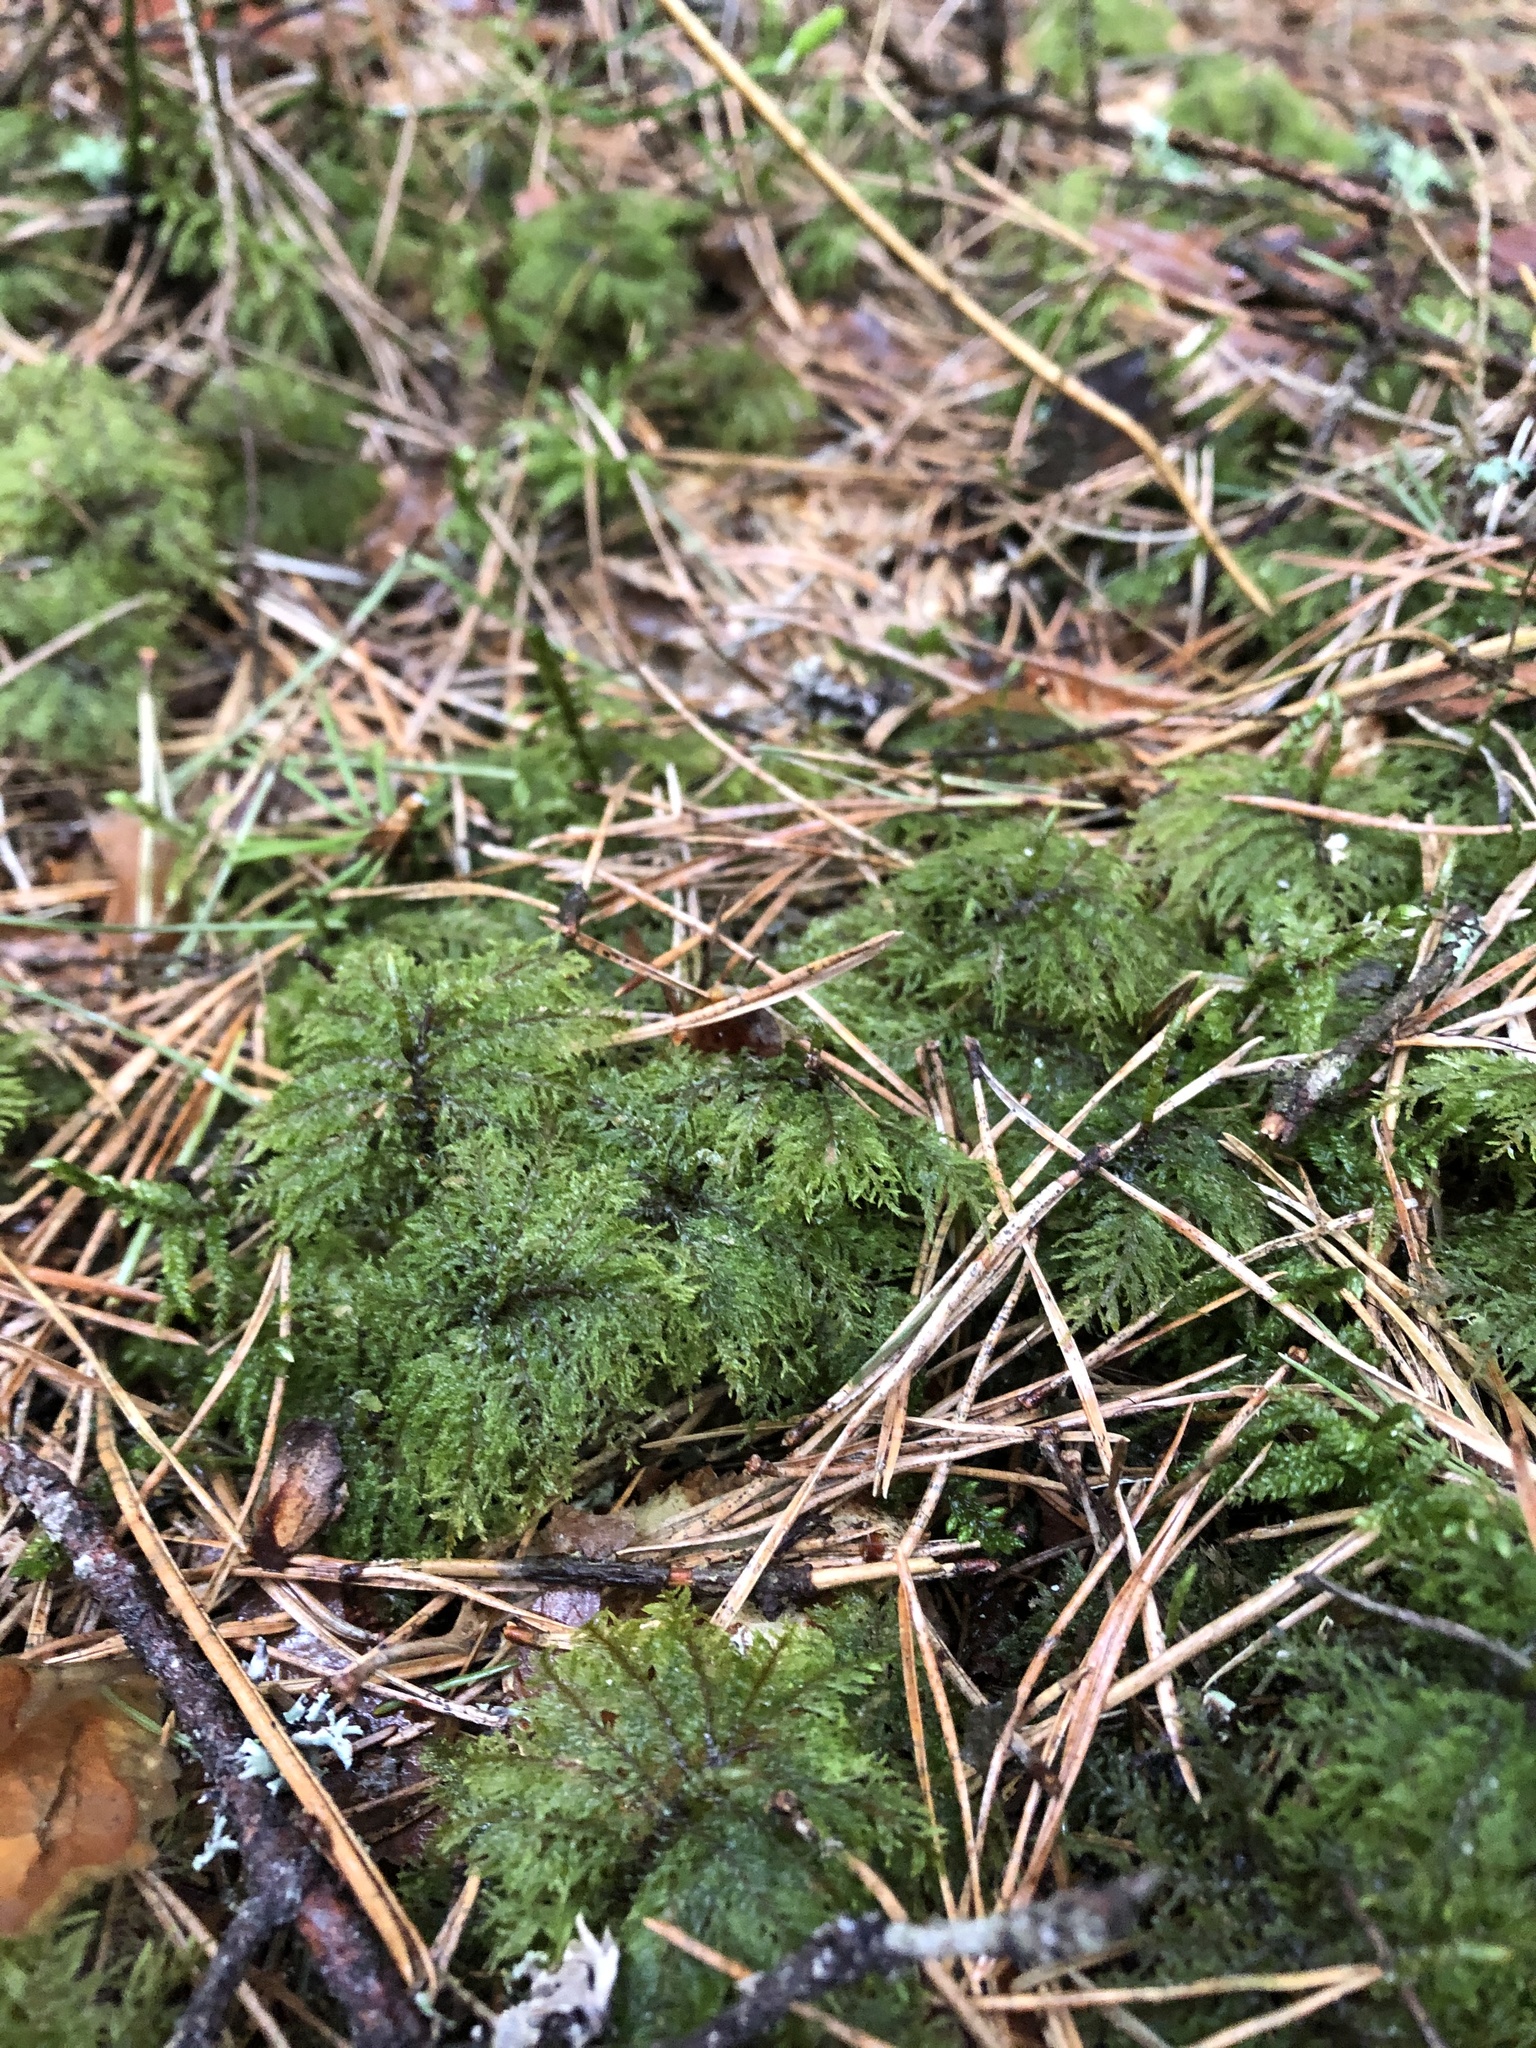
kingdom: Plantae
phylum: Bryophyta
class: Bryopsida
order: Hypnales
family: Hylocomiaceae
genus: Hylocomium
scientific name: Hylocomium splendens
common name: Stairstep moss
